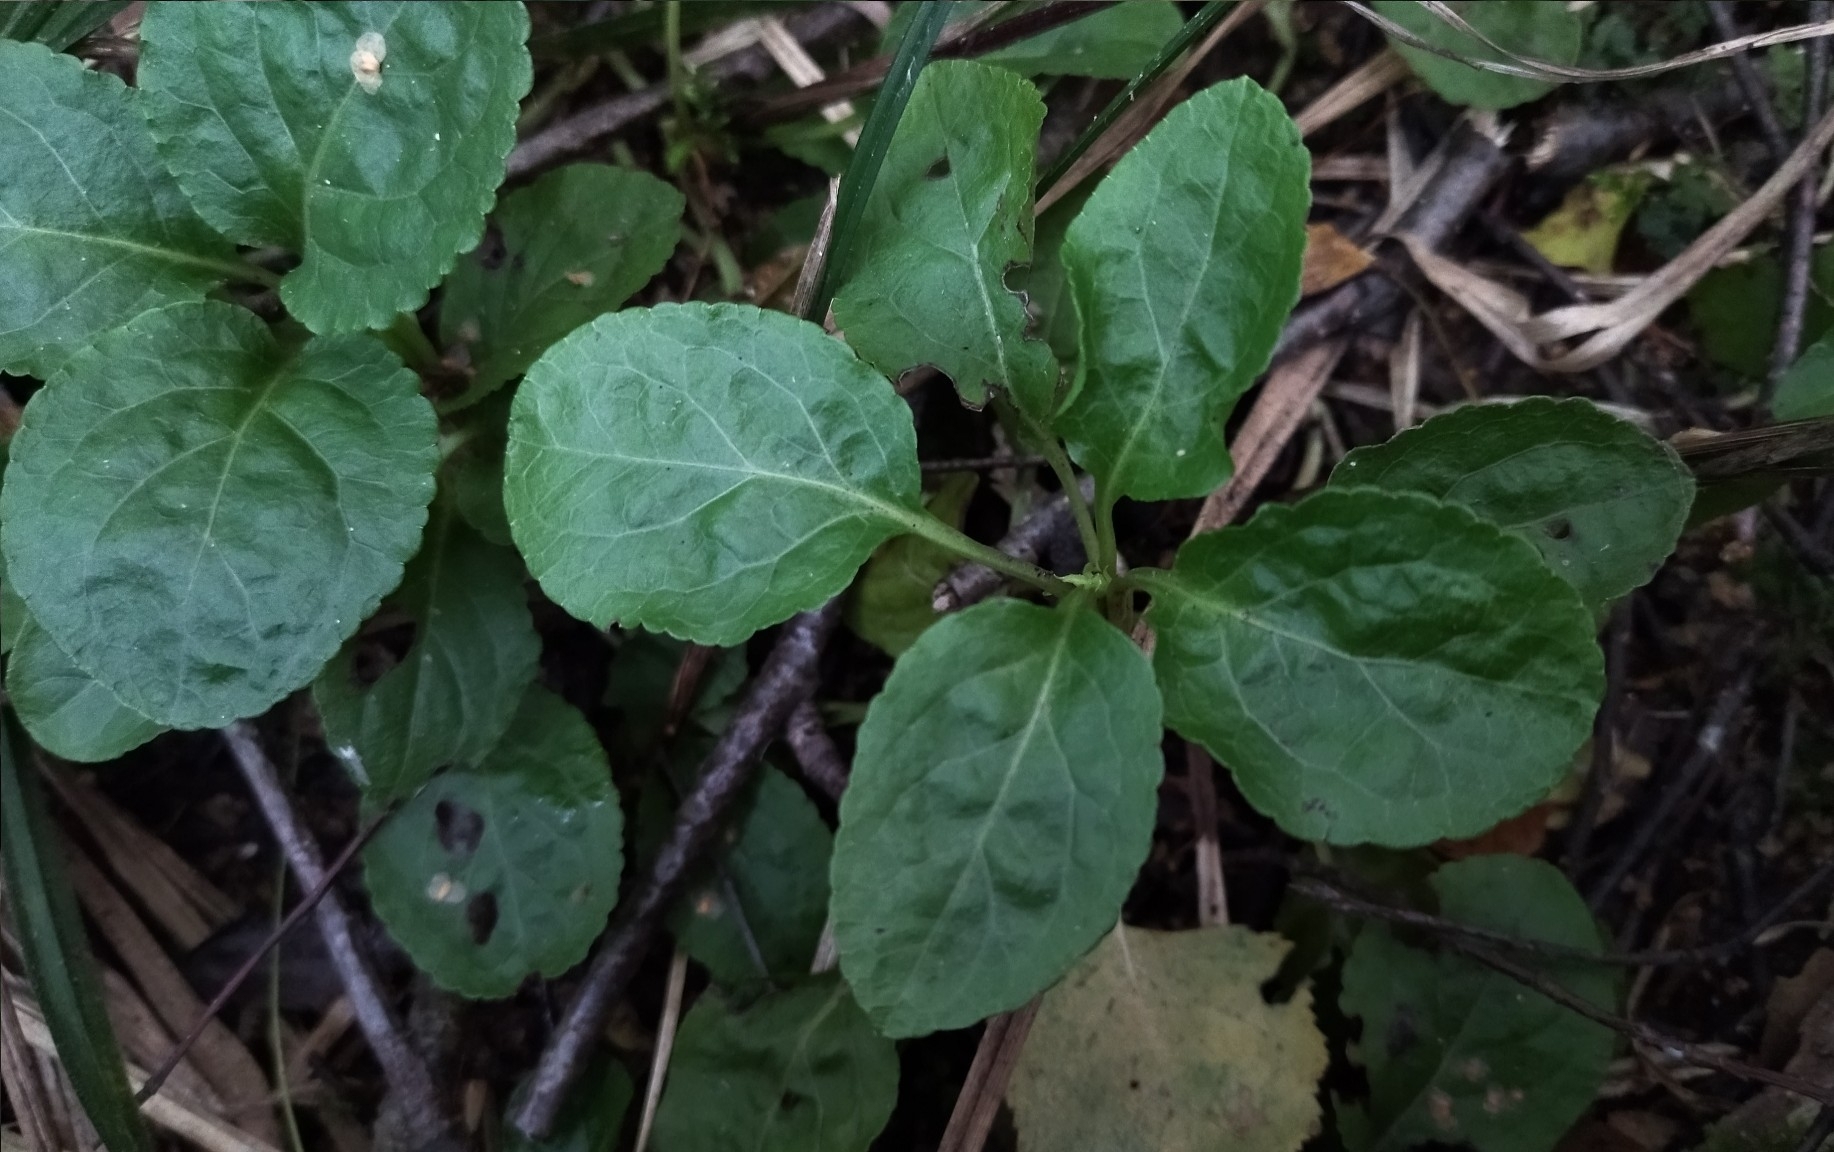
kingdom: Plantae
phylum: Tracheophyta
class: Magnoliopsida
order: Ericales
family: Ericaceae
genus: Orthilia
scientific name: Orthilia secunda
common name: One-sided orthilia
